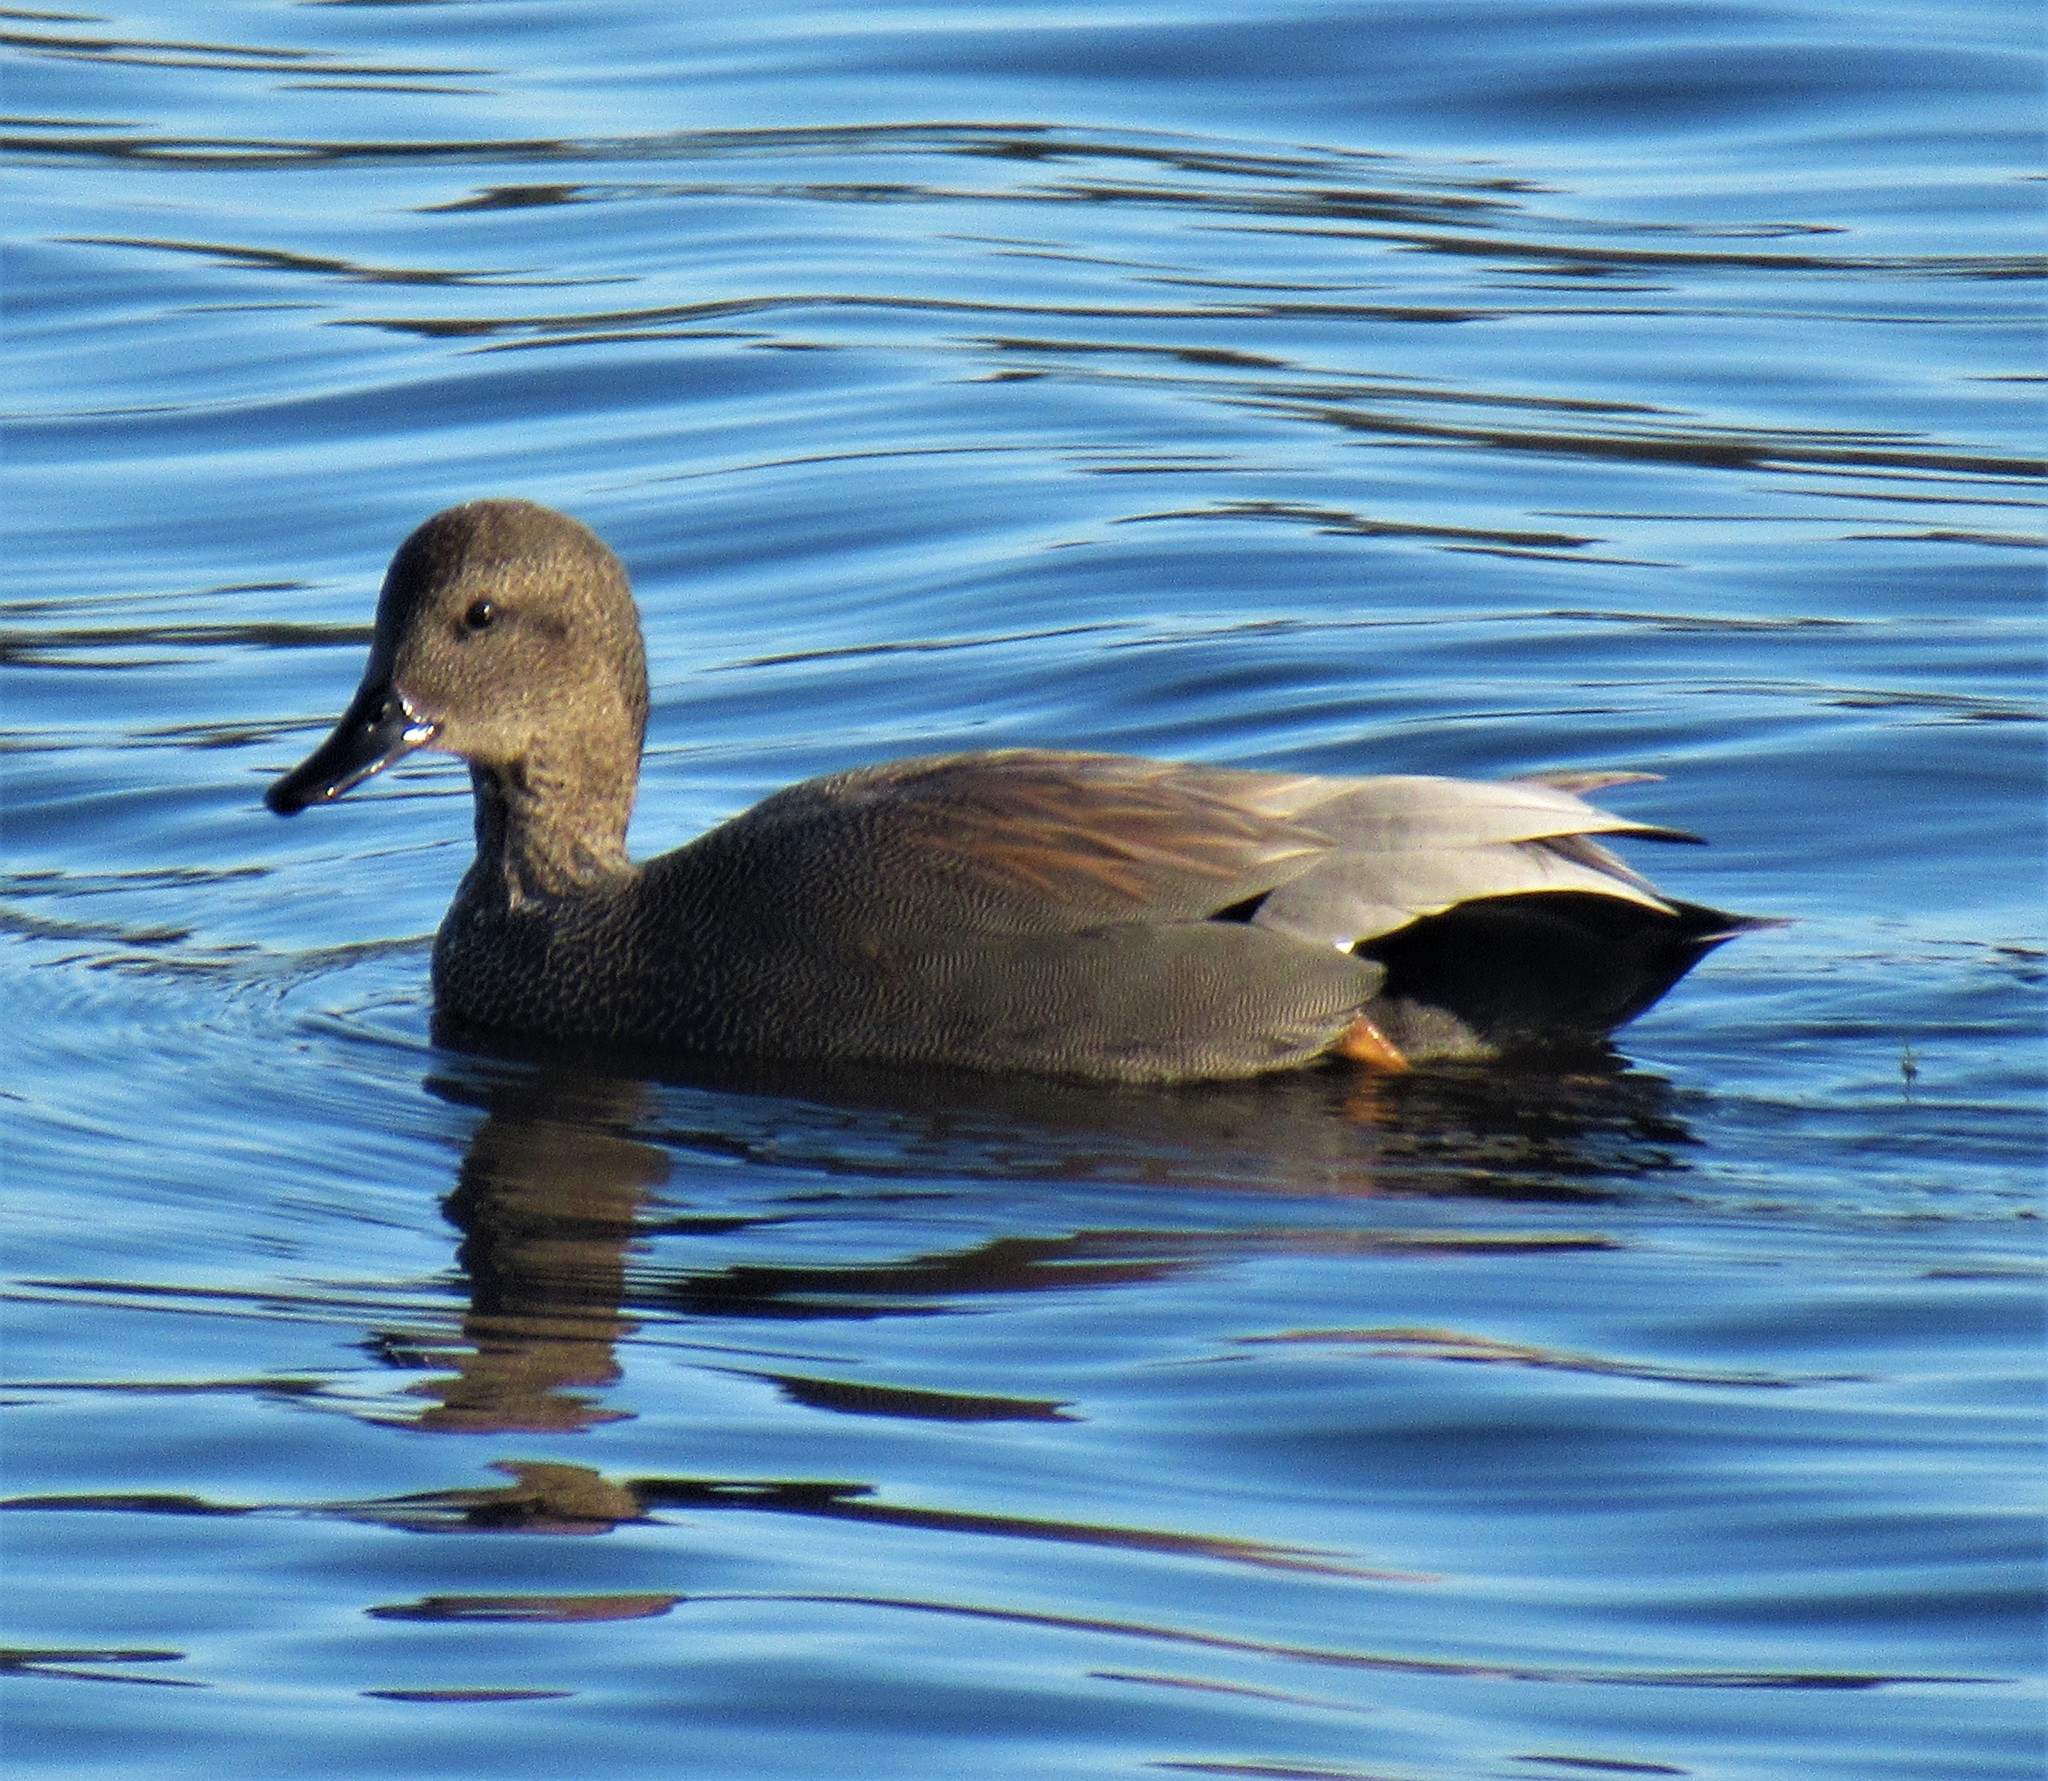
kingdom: Animalia
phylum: Chordata
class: Aves
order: Anseriformes
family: Anatidae
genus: Mareca
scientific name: Mareca strepera
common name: Gadwall
